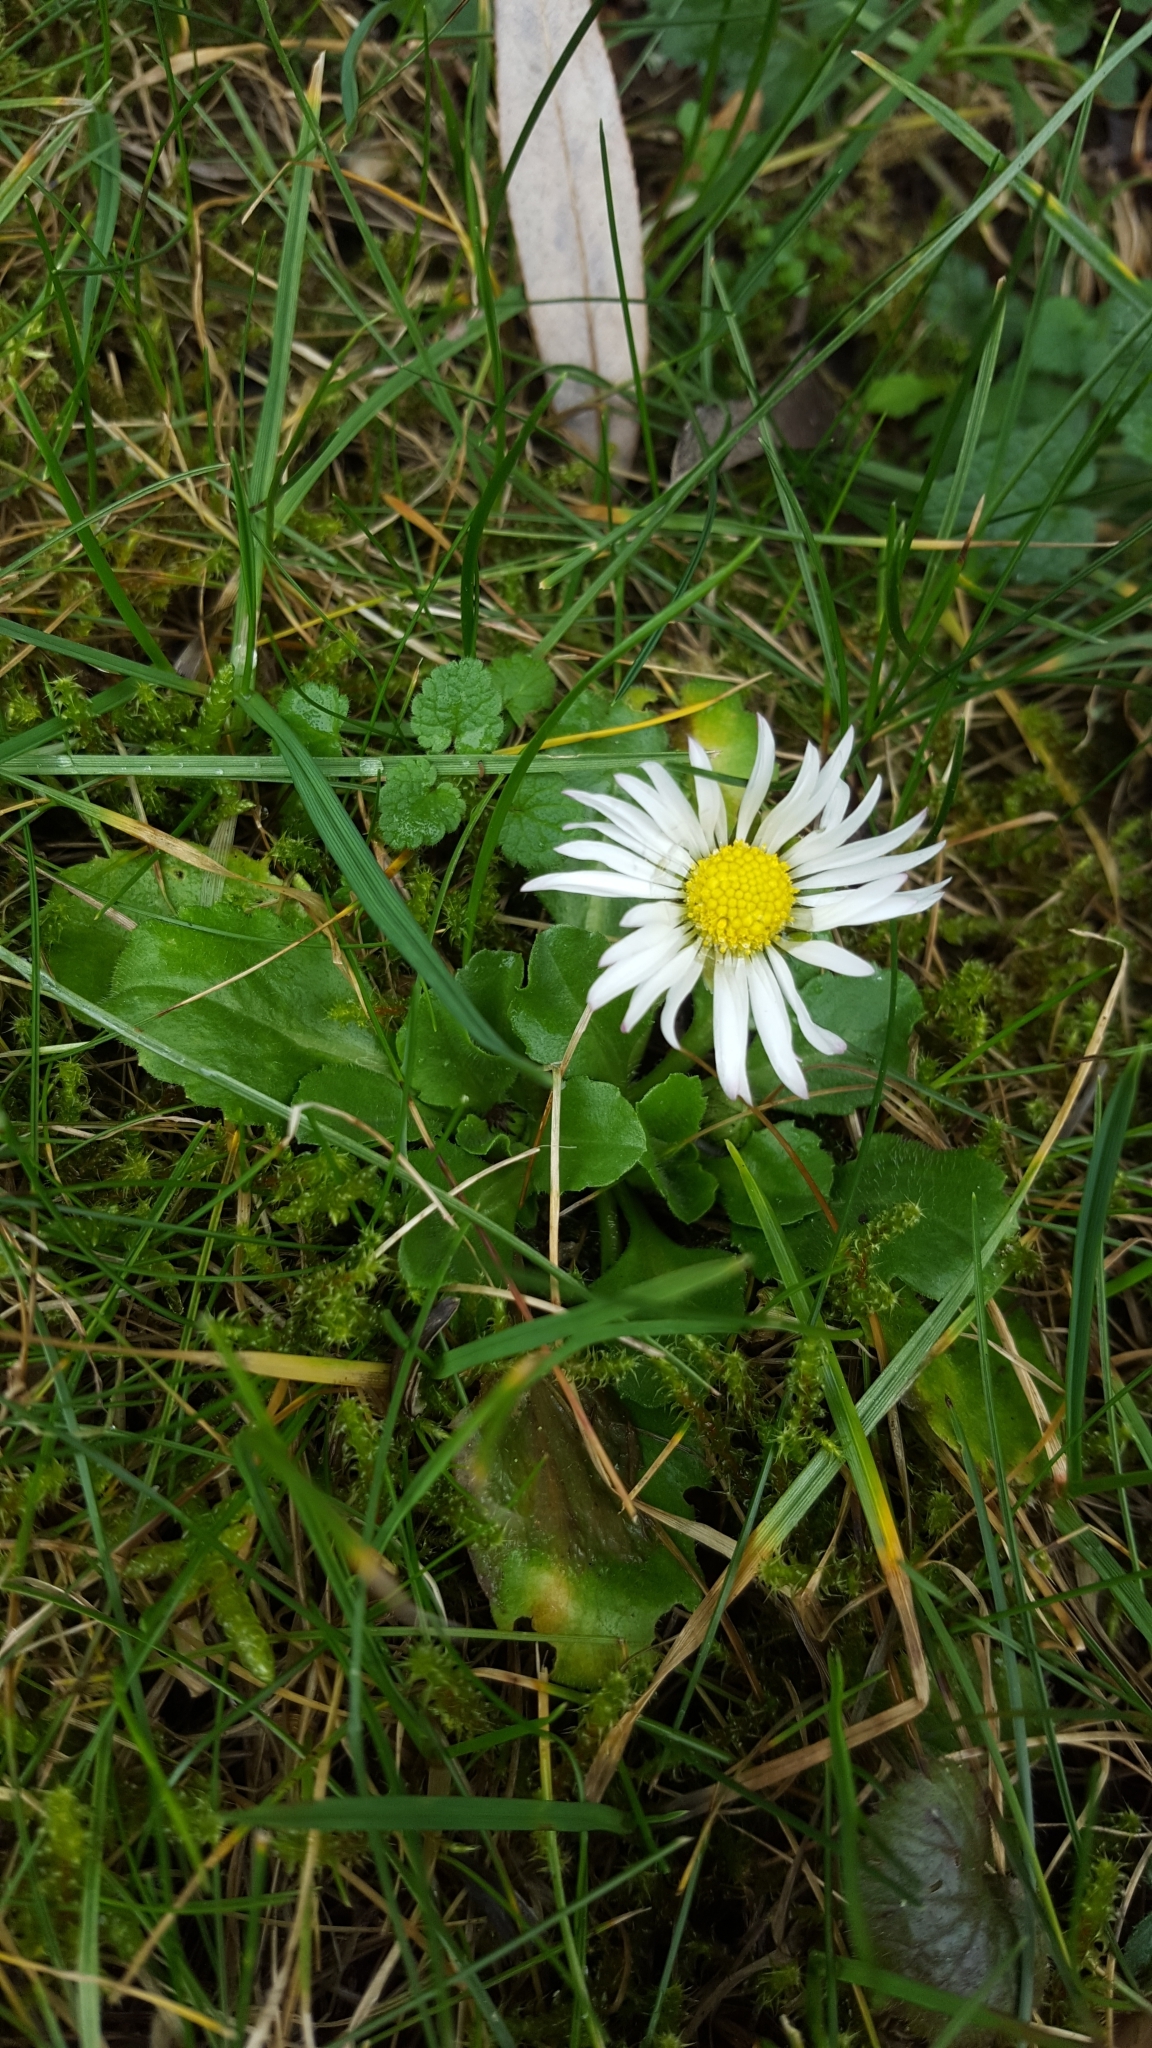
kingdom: Plantae
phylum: Tracheophyta
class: Magnoliopsida
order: Asterales
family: Asteraceae
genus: Bellis
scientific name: Bellis perennis
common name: Lawndaisy
